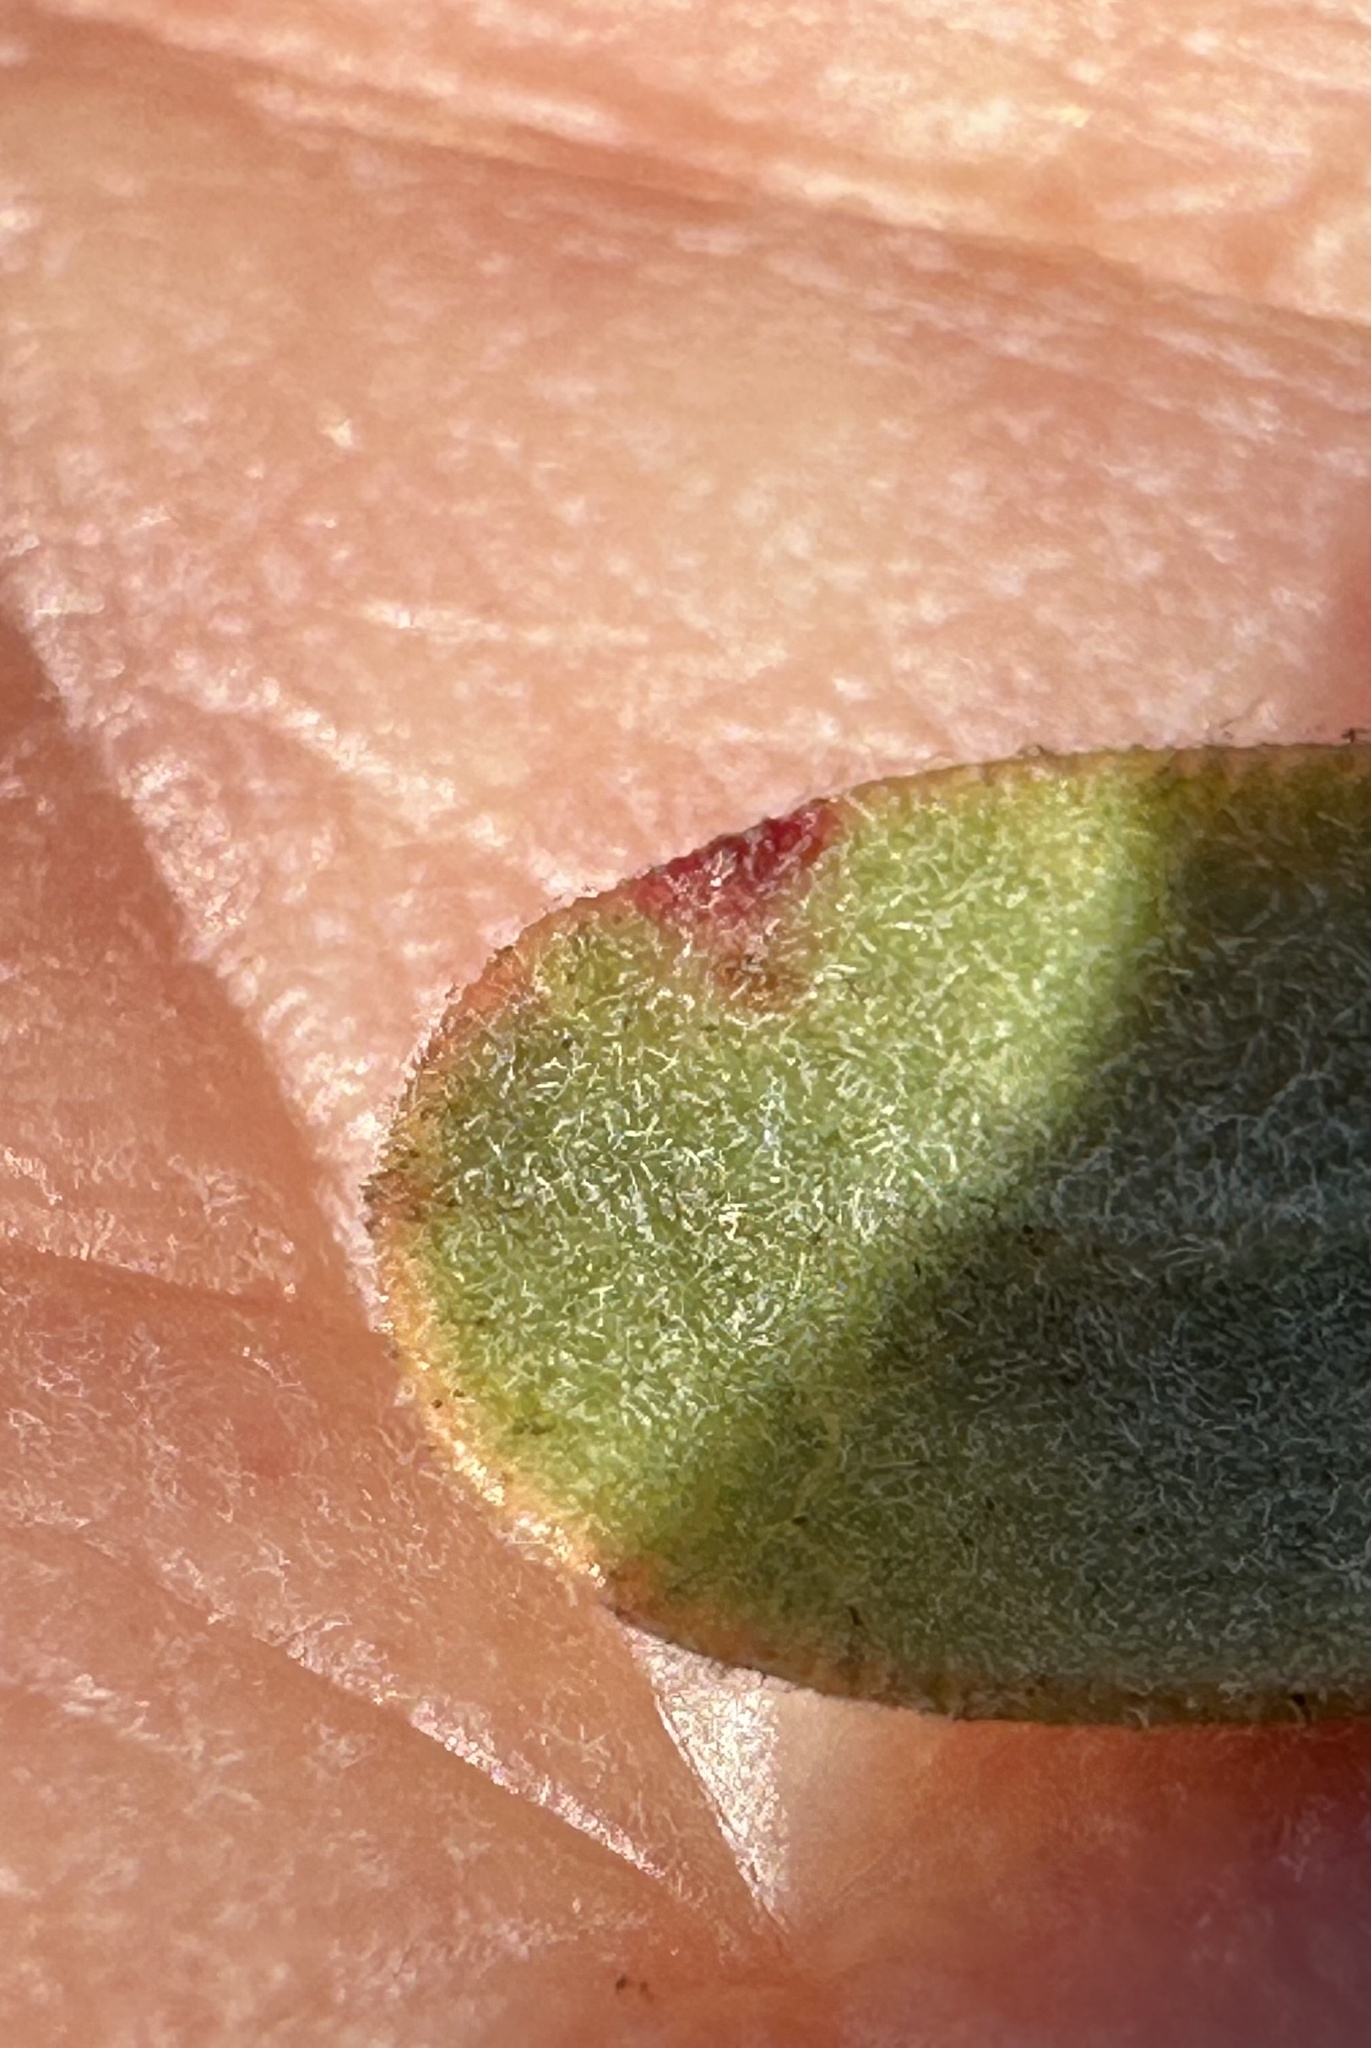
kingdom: Plantae
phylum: Tracheophyta
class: Magnoliopsida
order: Ericales
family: Ericaceae
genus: Arctostaphylos
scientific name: Arctostaphylos pumila
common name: Sandmat manzanita
